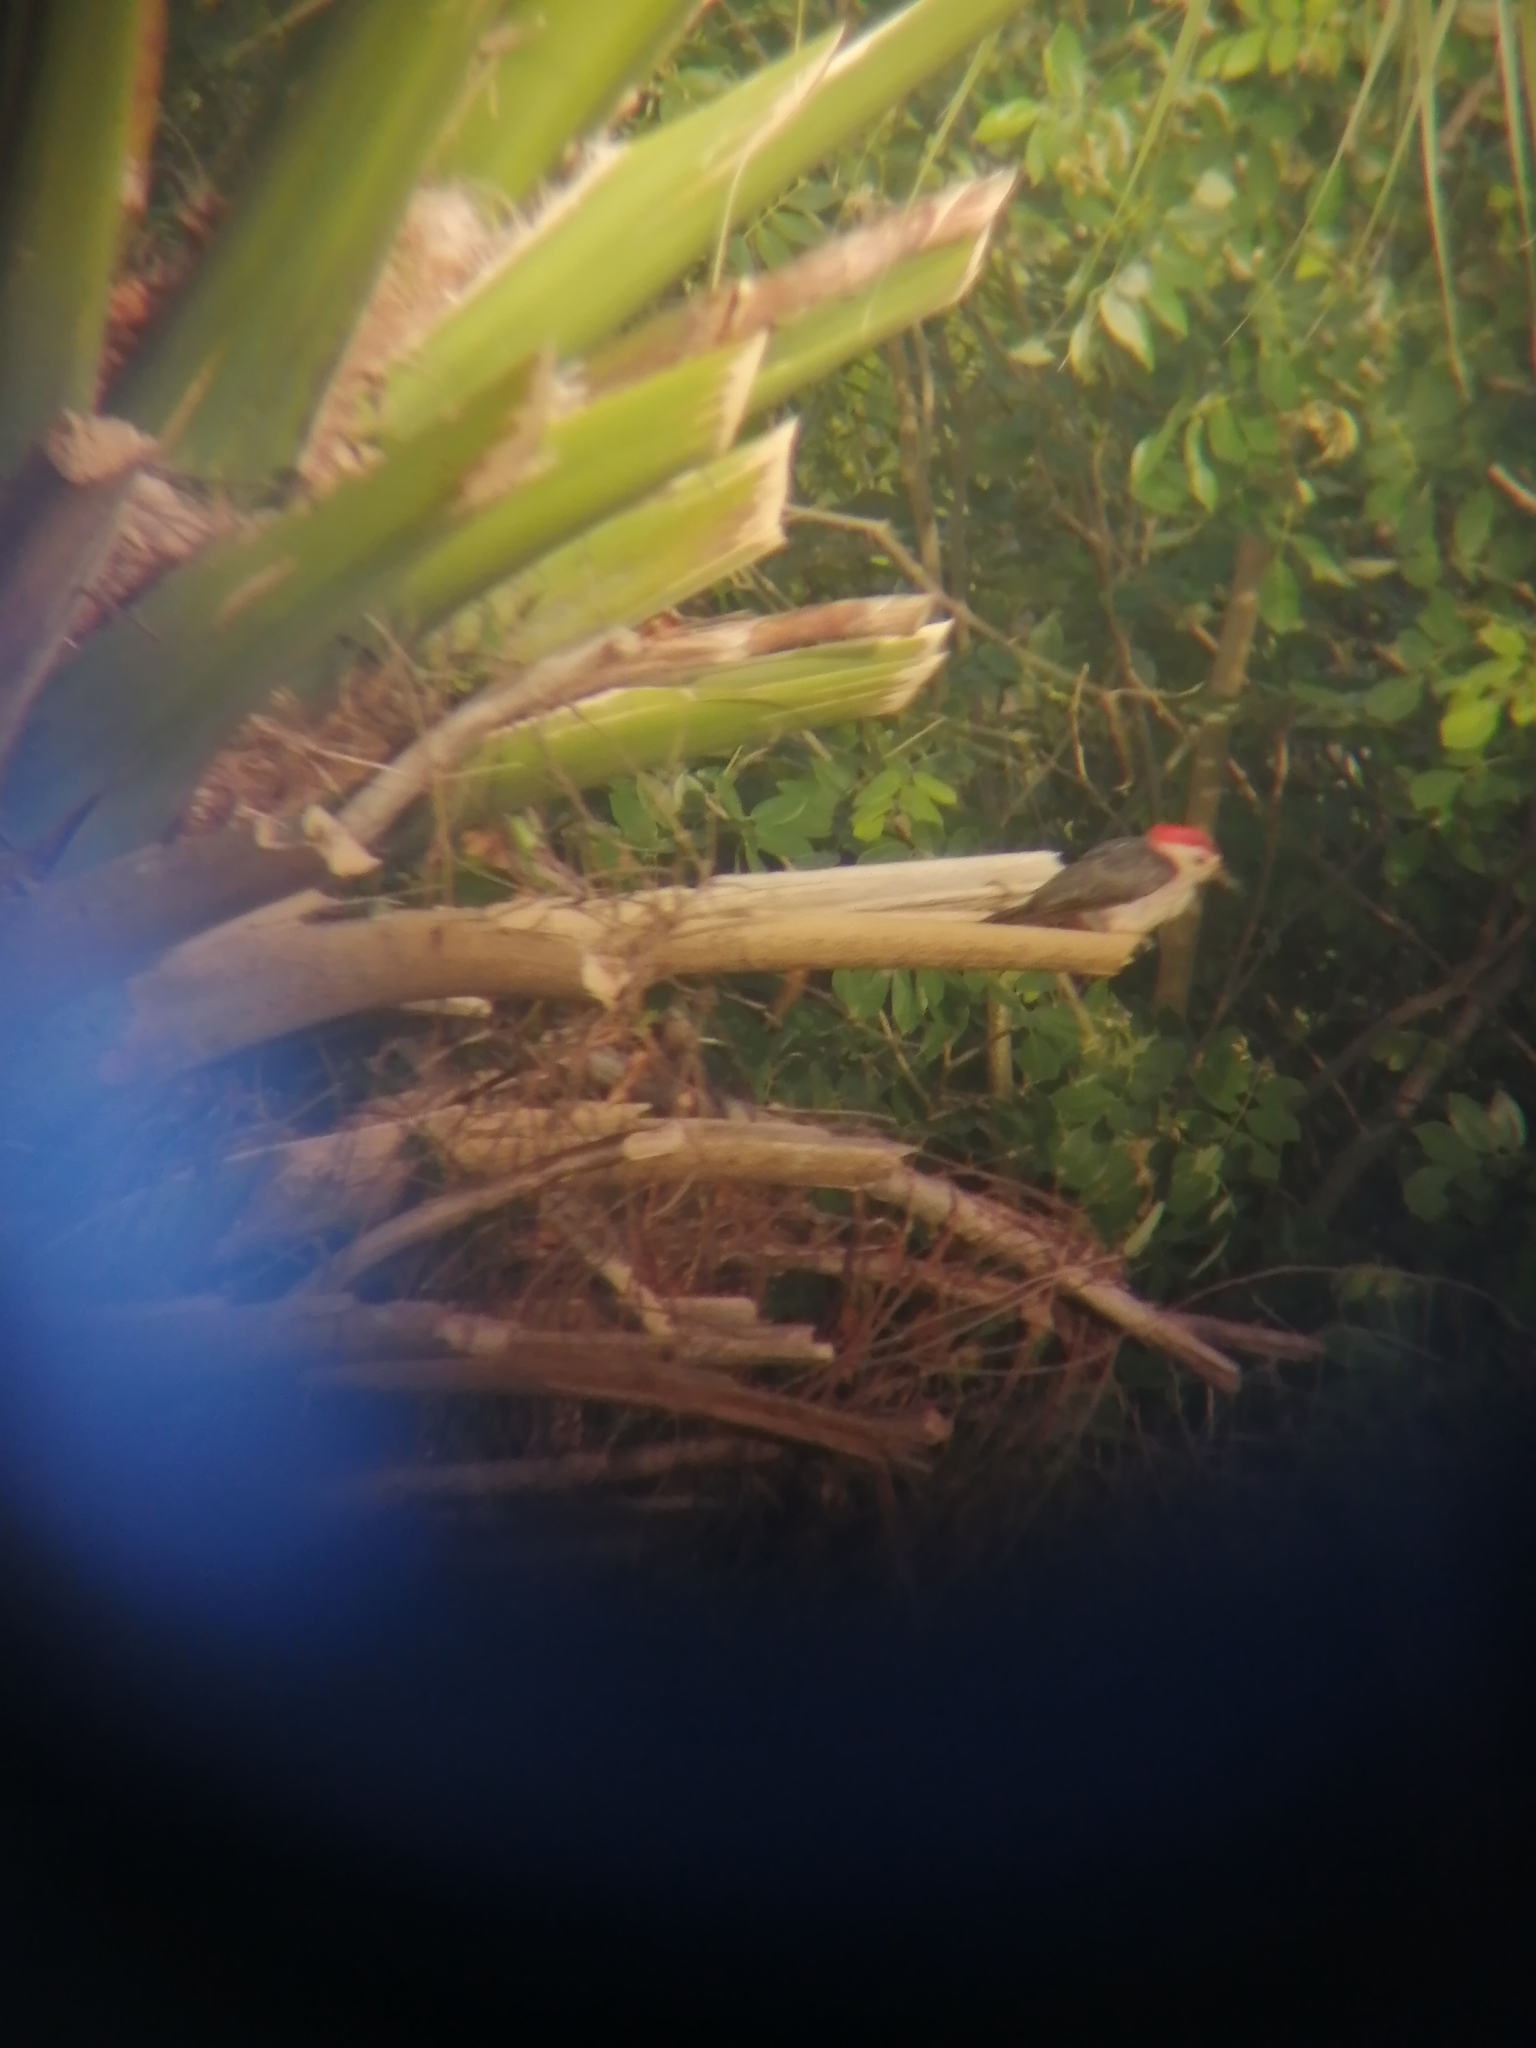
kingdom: Animalia
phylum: Chordata
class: Aves
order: Piciformes
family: Picidae
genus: Melanerpes
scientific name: Melanerpes pygmaeus
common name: Yucatan woodpecker
